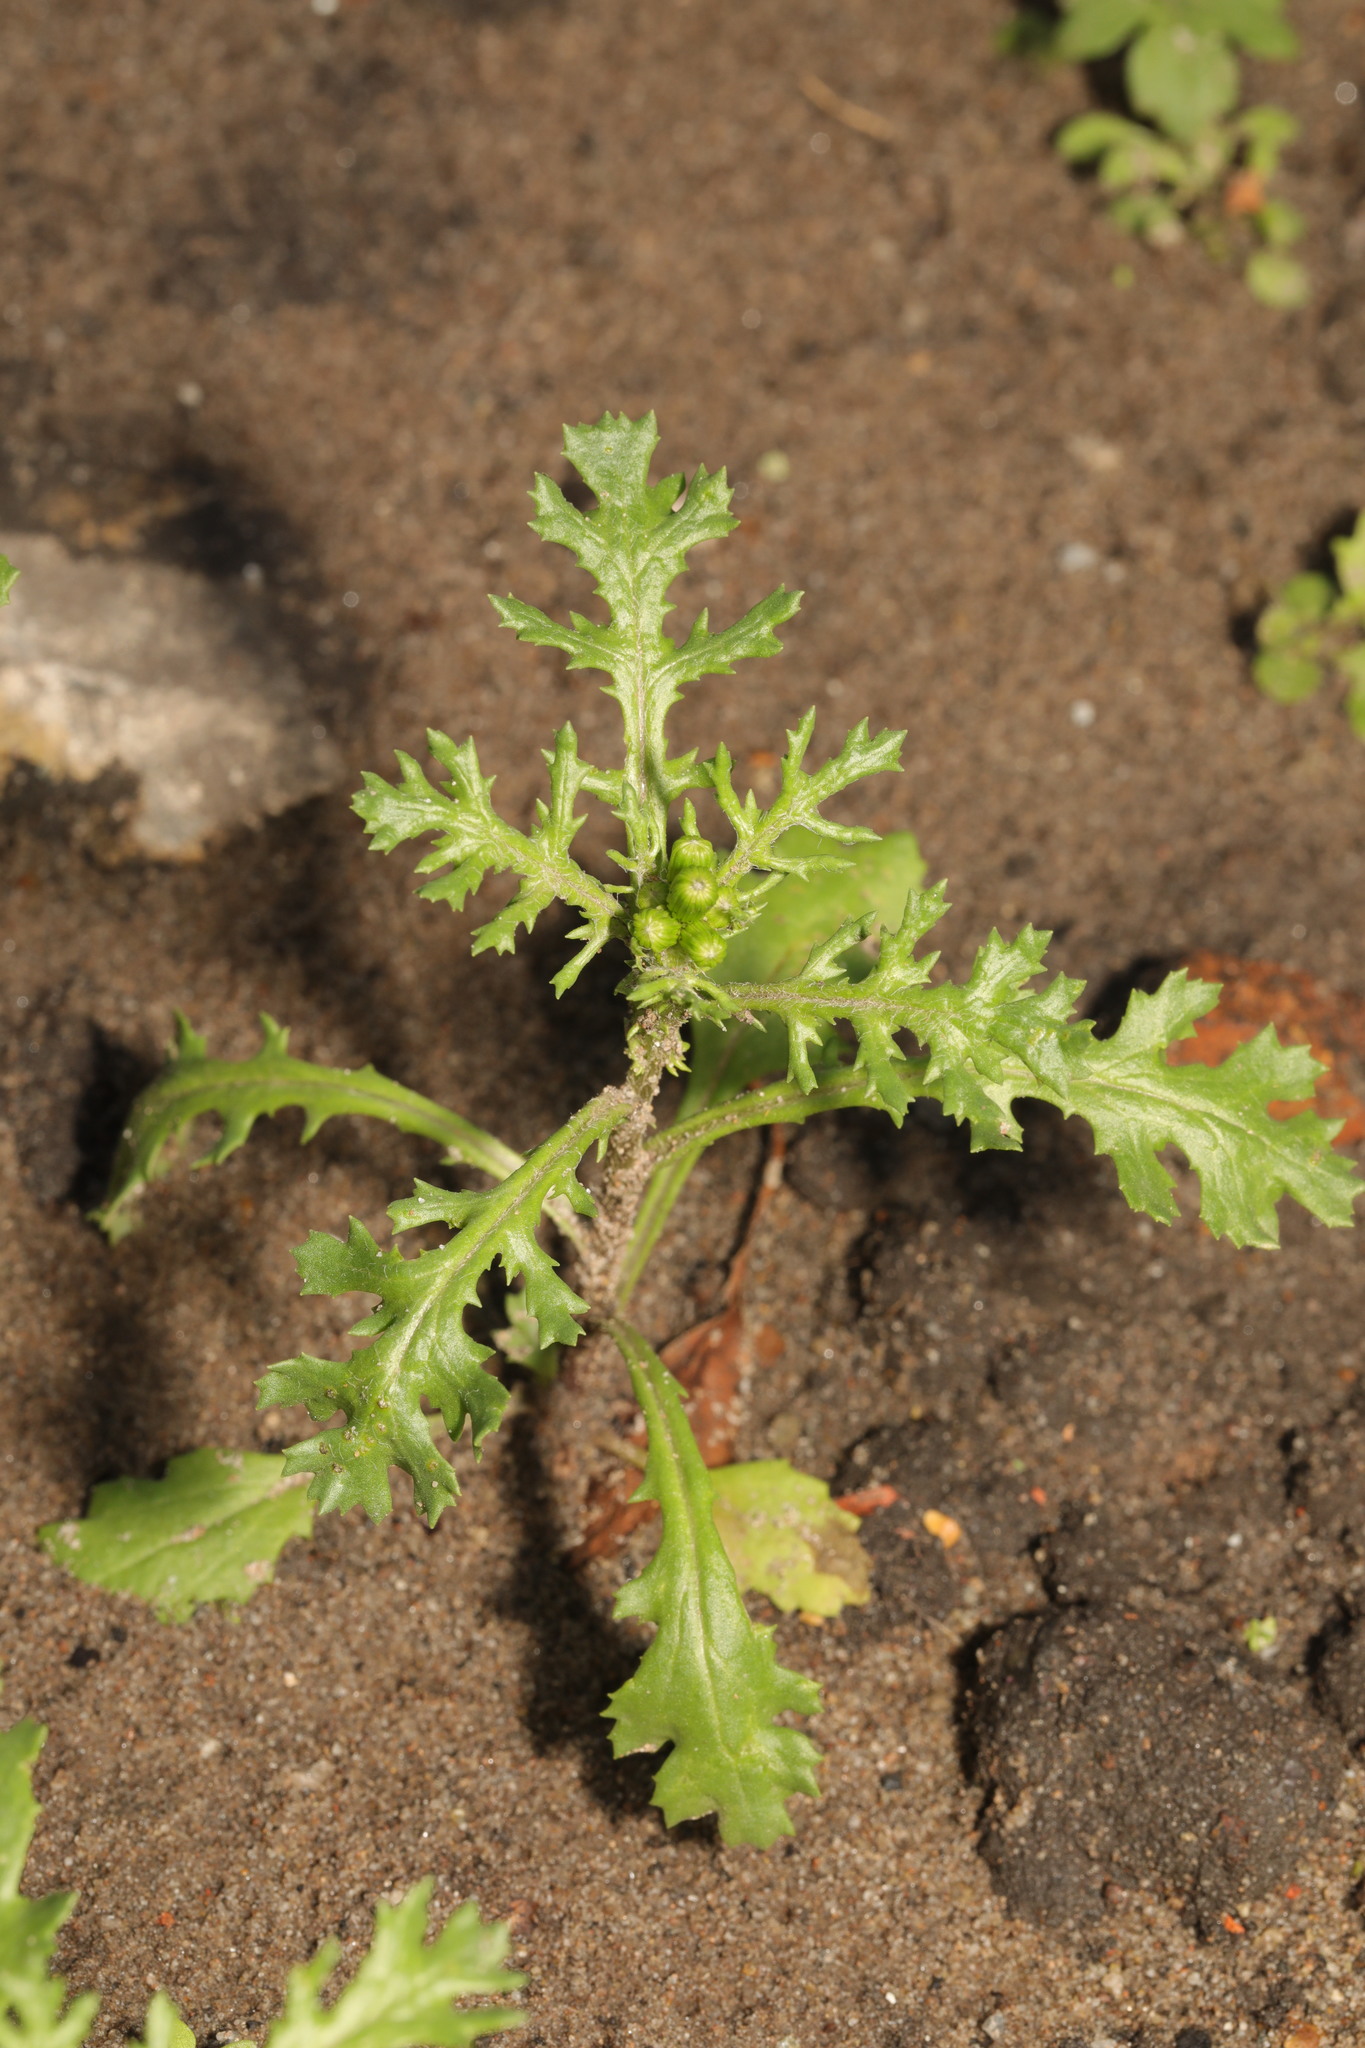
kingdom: Plantae
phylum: Tracheophyta
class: Magnoliopsida
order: Asterales
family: Asteraceae
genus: Senecio
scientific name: Senecio vulgaris
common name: Old-man-in-the-spring
